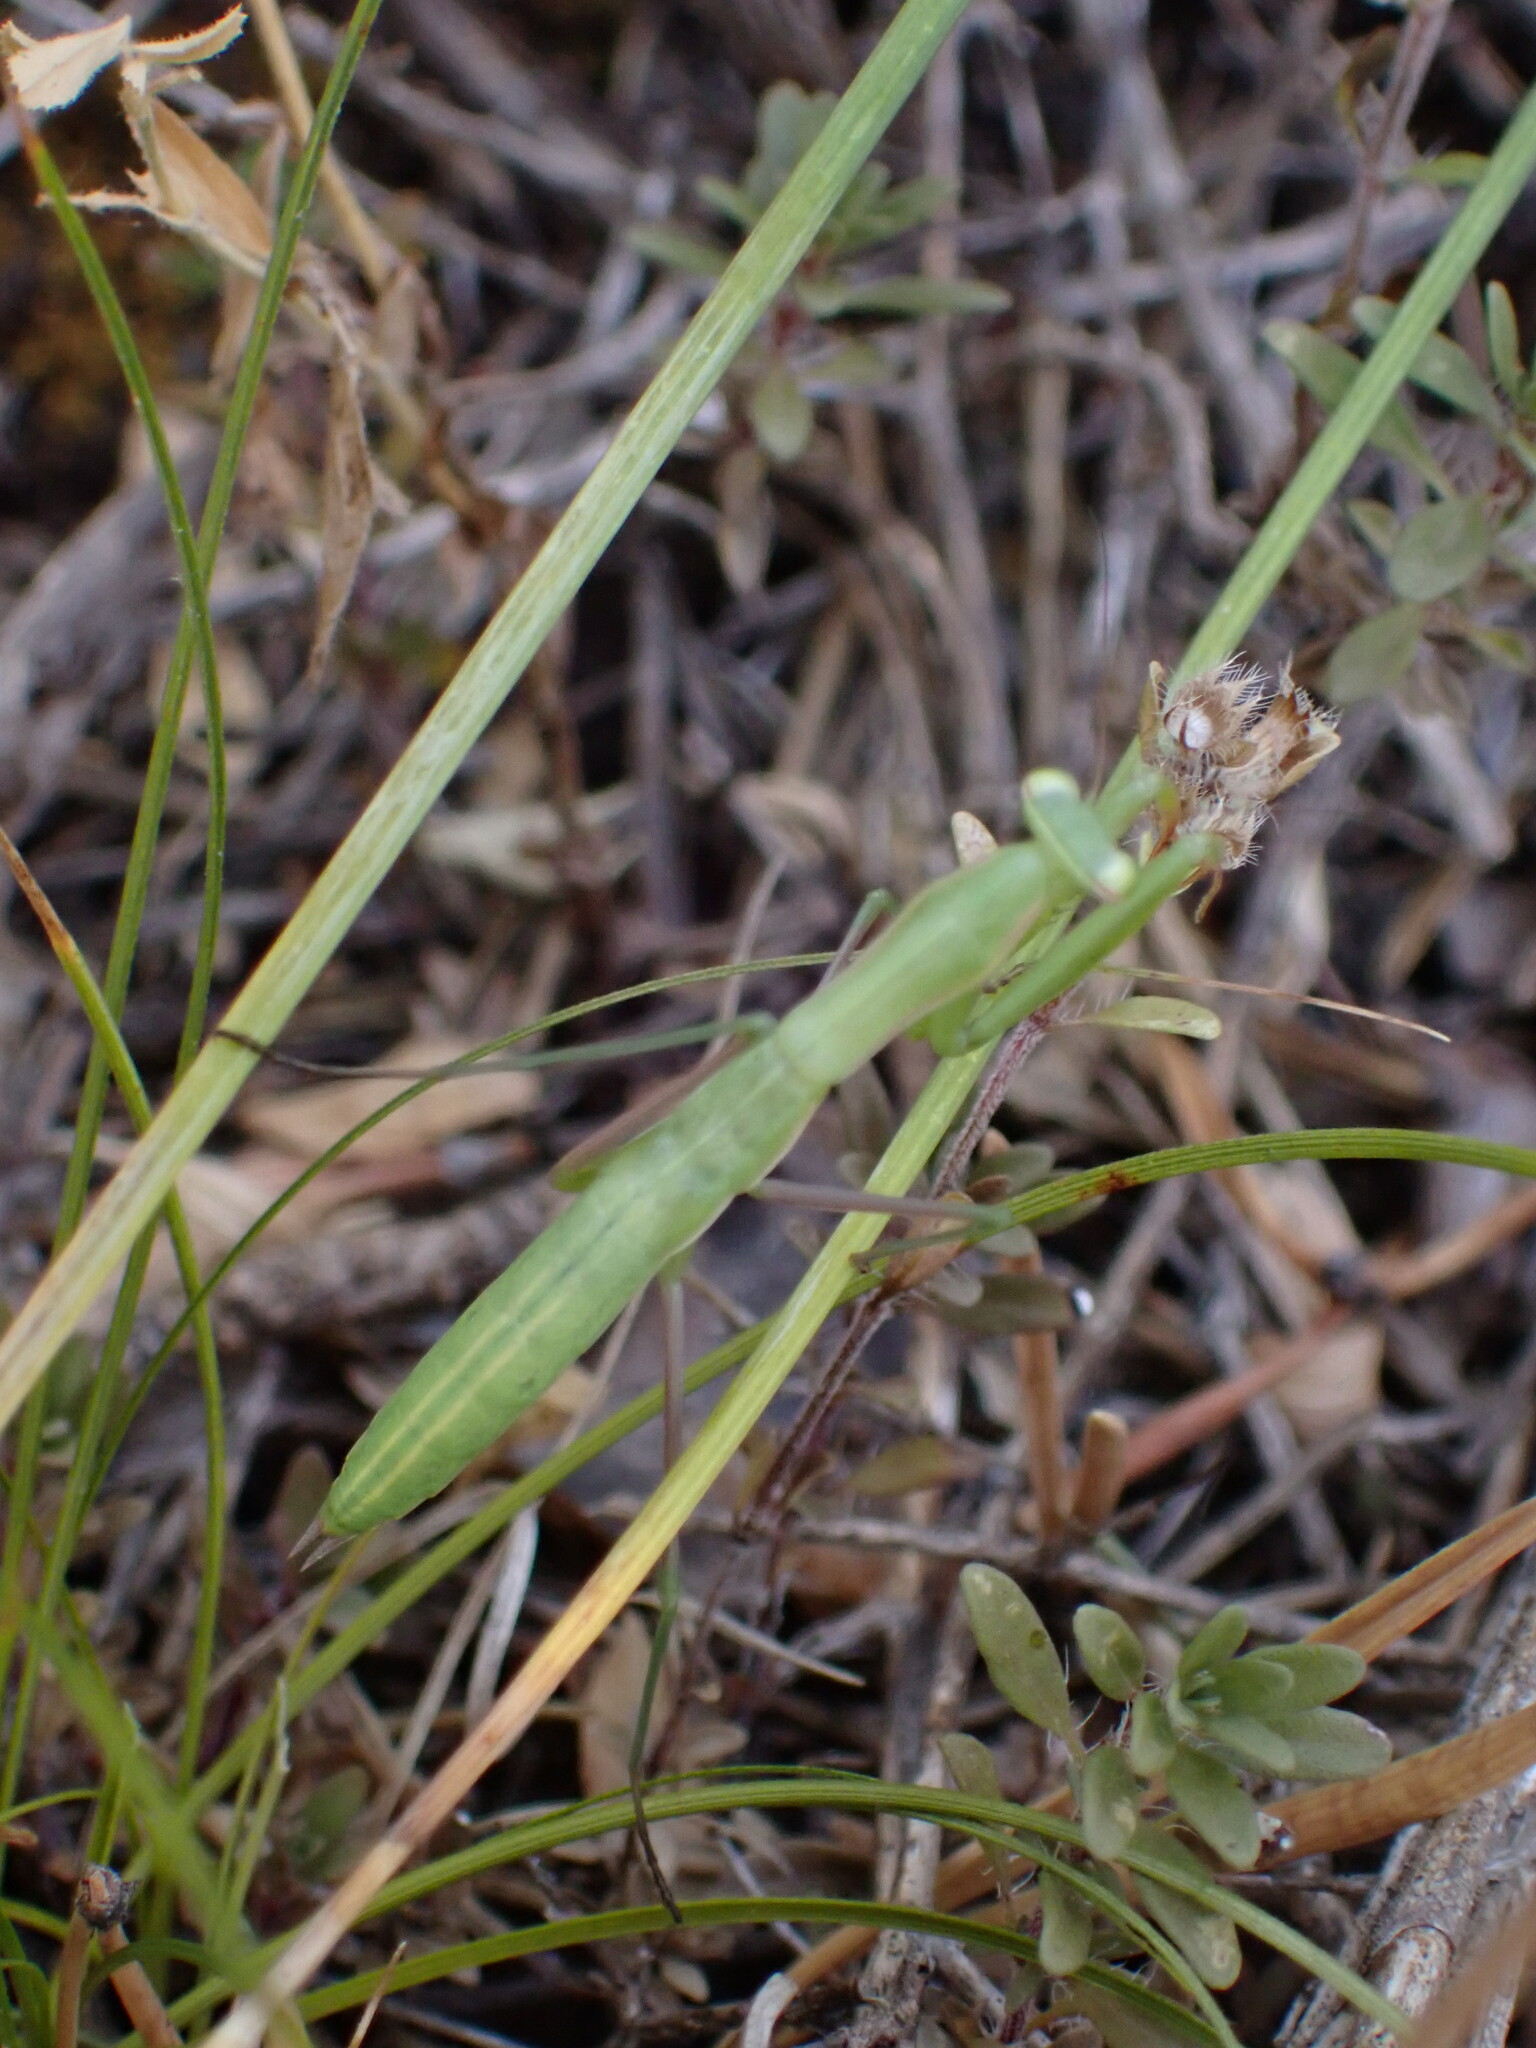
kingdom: Animalia
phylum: Arthropoda
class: Insecta
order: Mantodea
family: Mantidae
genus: Mantis
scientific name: Mantis religiosa
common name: Praying mantis
